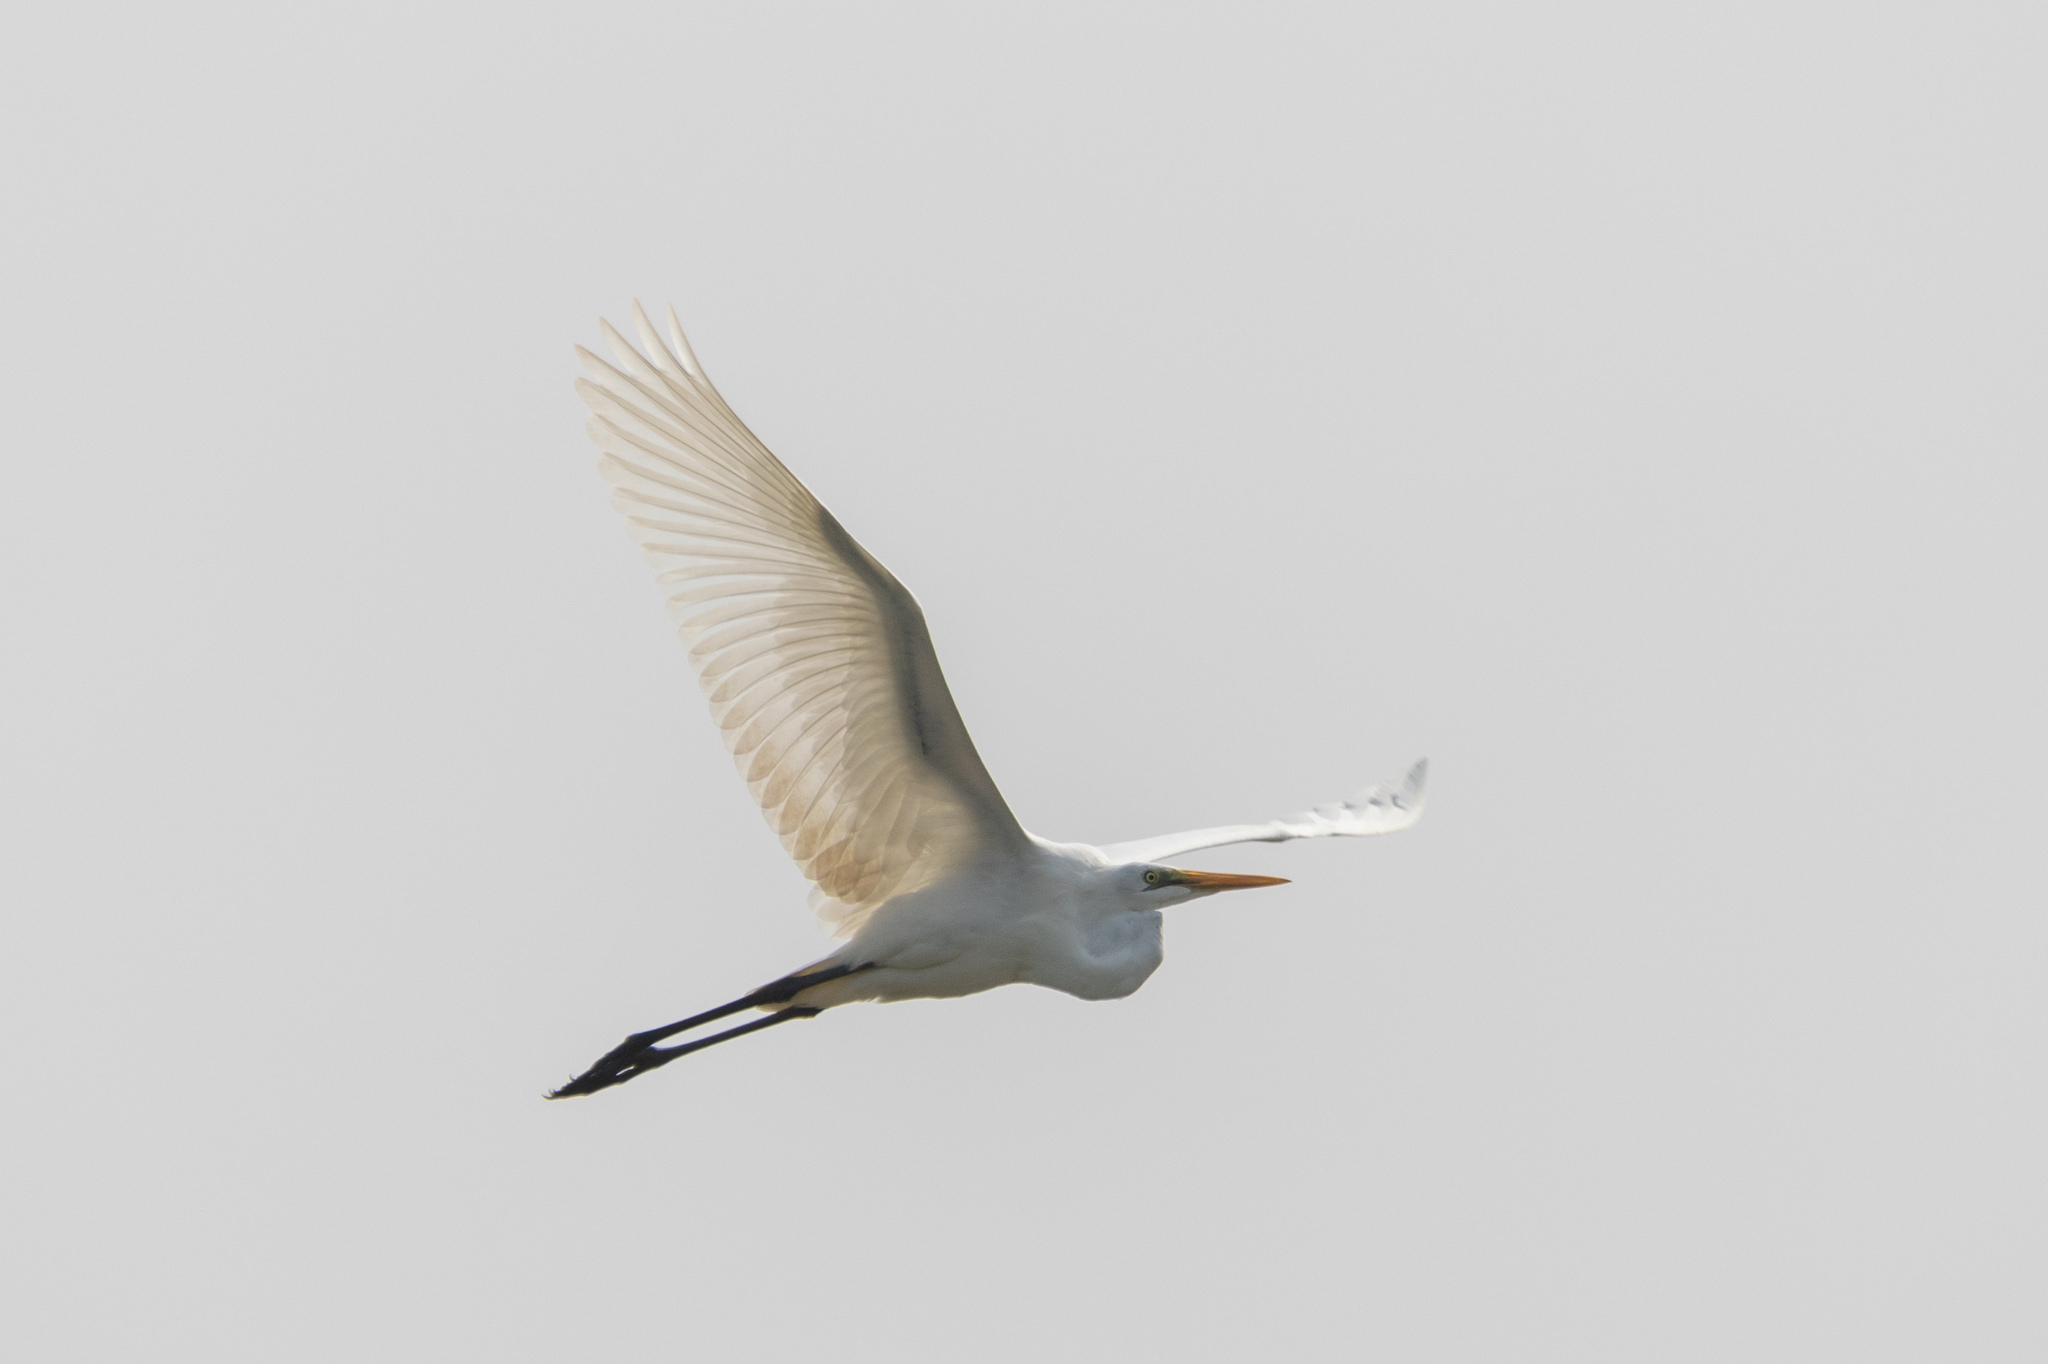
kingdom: Animalia
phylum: Chordata
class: Aves
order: Pelecaniformes
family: Ardeidae
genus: Ardea
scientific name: Ardea alba
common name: Great egret
